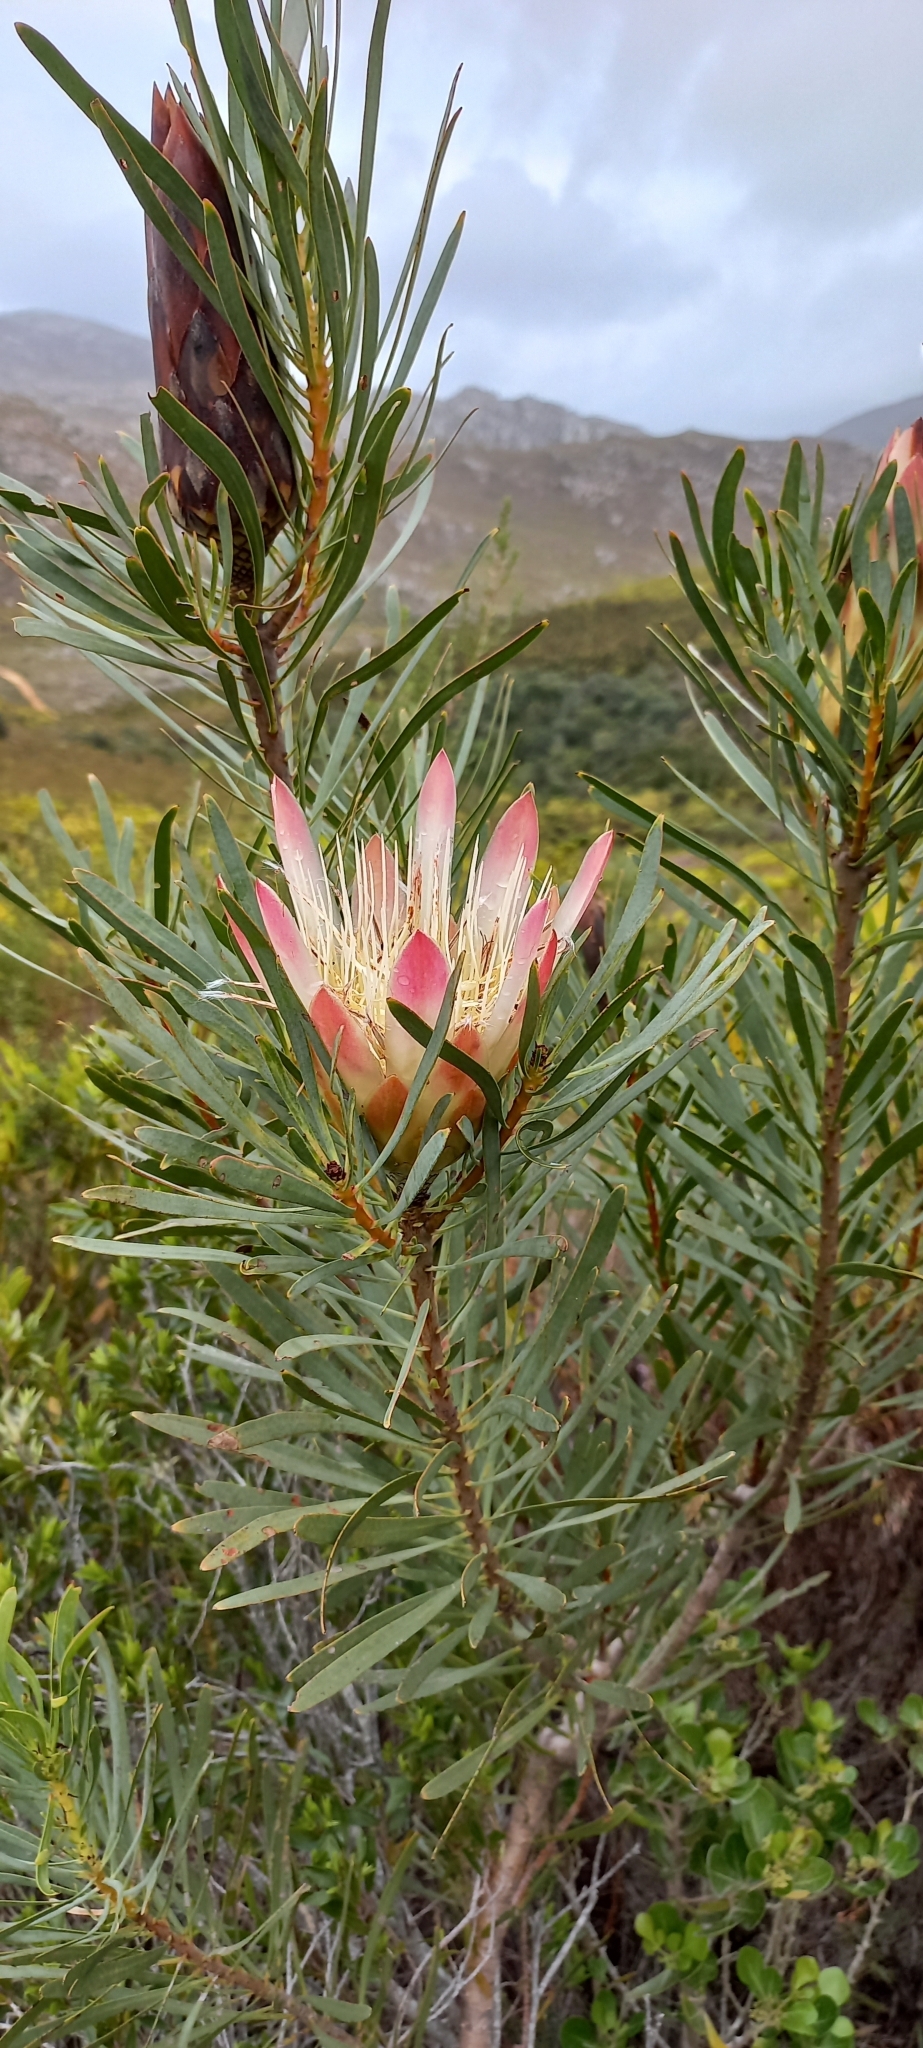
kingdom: Plantae
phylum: Tracheophyta
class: Magnoliopsida
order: Proteales
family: Proteaceae
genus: Protea
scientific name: Protea repens
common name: Sugarbush
